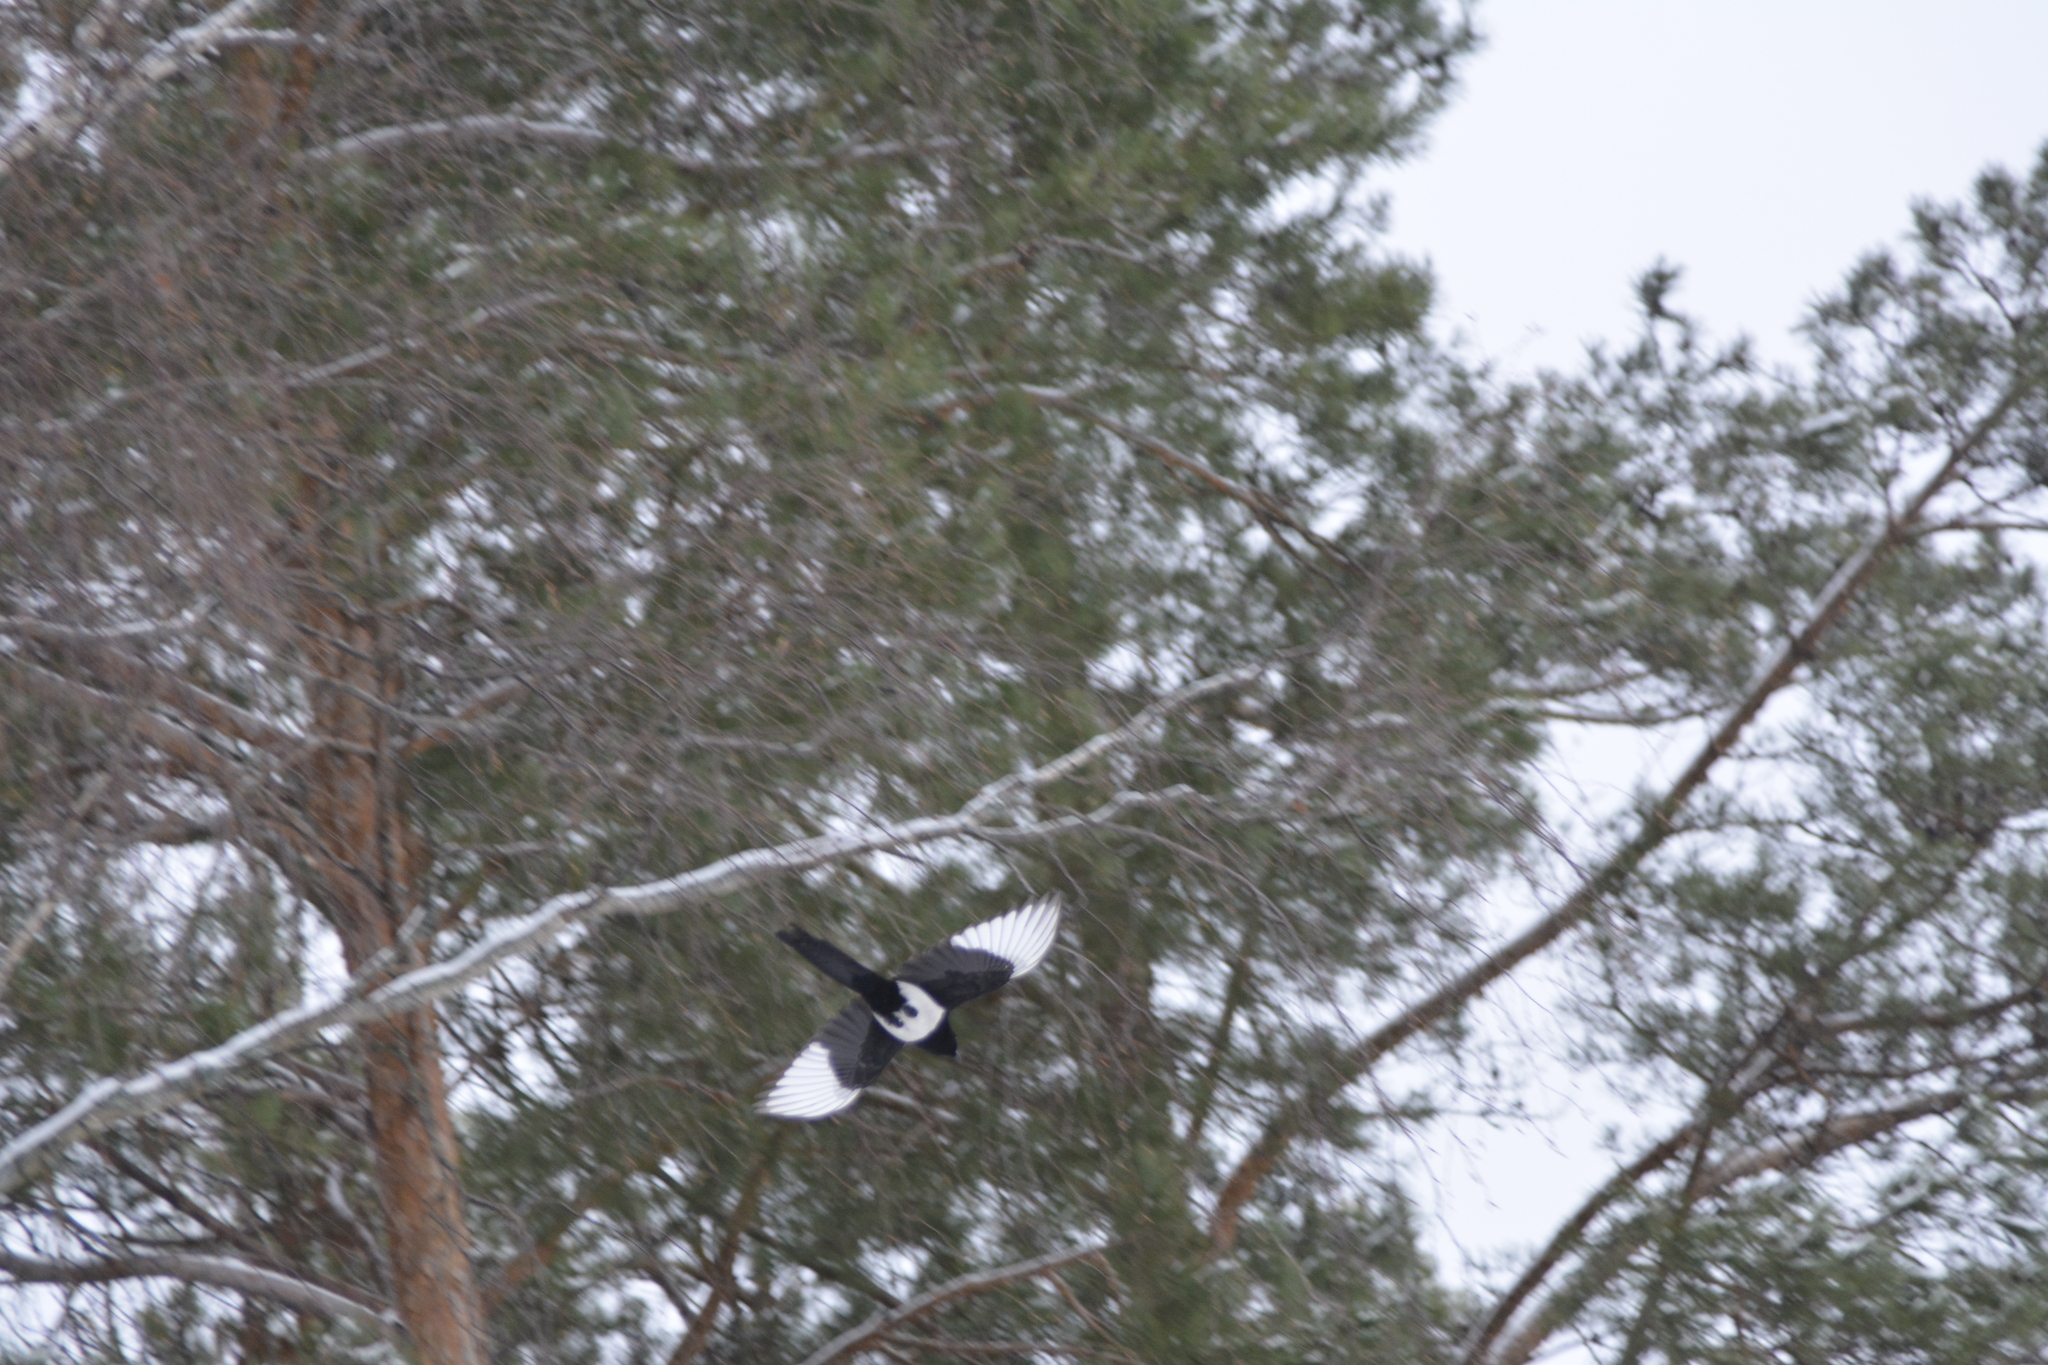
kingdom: Animalia
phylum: Chordata
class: Aves
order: Passeriformes
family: Corvidae
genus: Pica
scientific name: Pica pica
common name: Eurasian magpie
